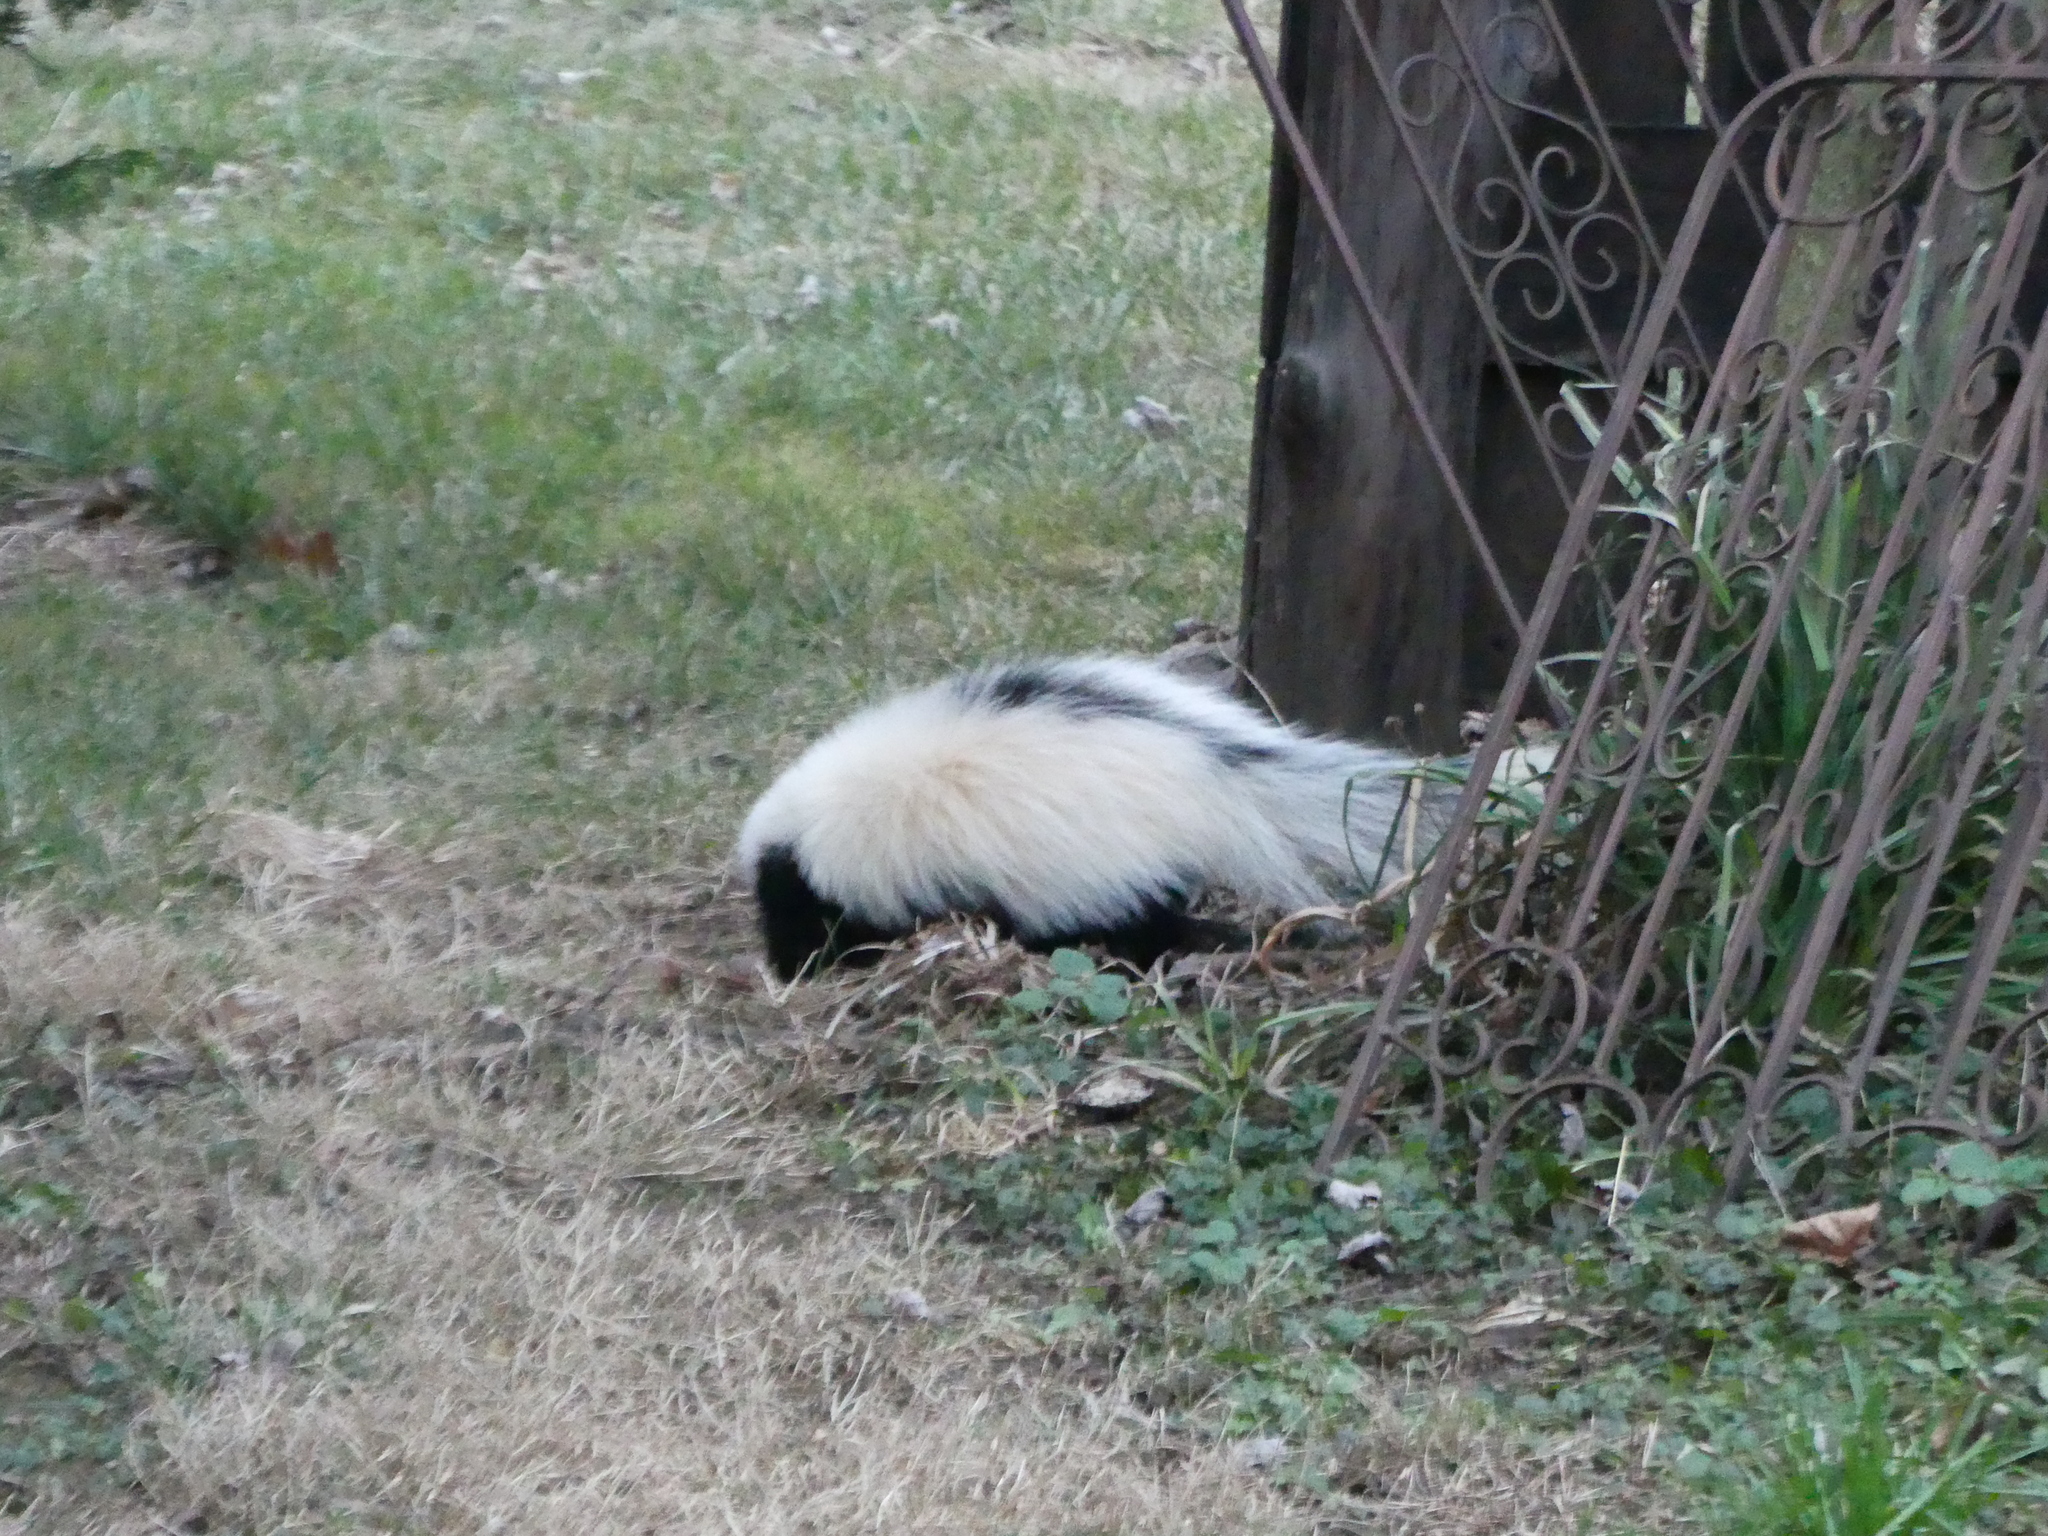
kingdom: Animalia
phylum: Chordata
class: Mammalia
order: Carnivora
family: Mephitidae
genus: Mephitis
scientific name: Mephitis mephitis
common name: Striped skunk
